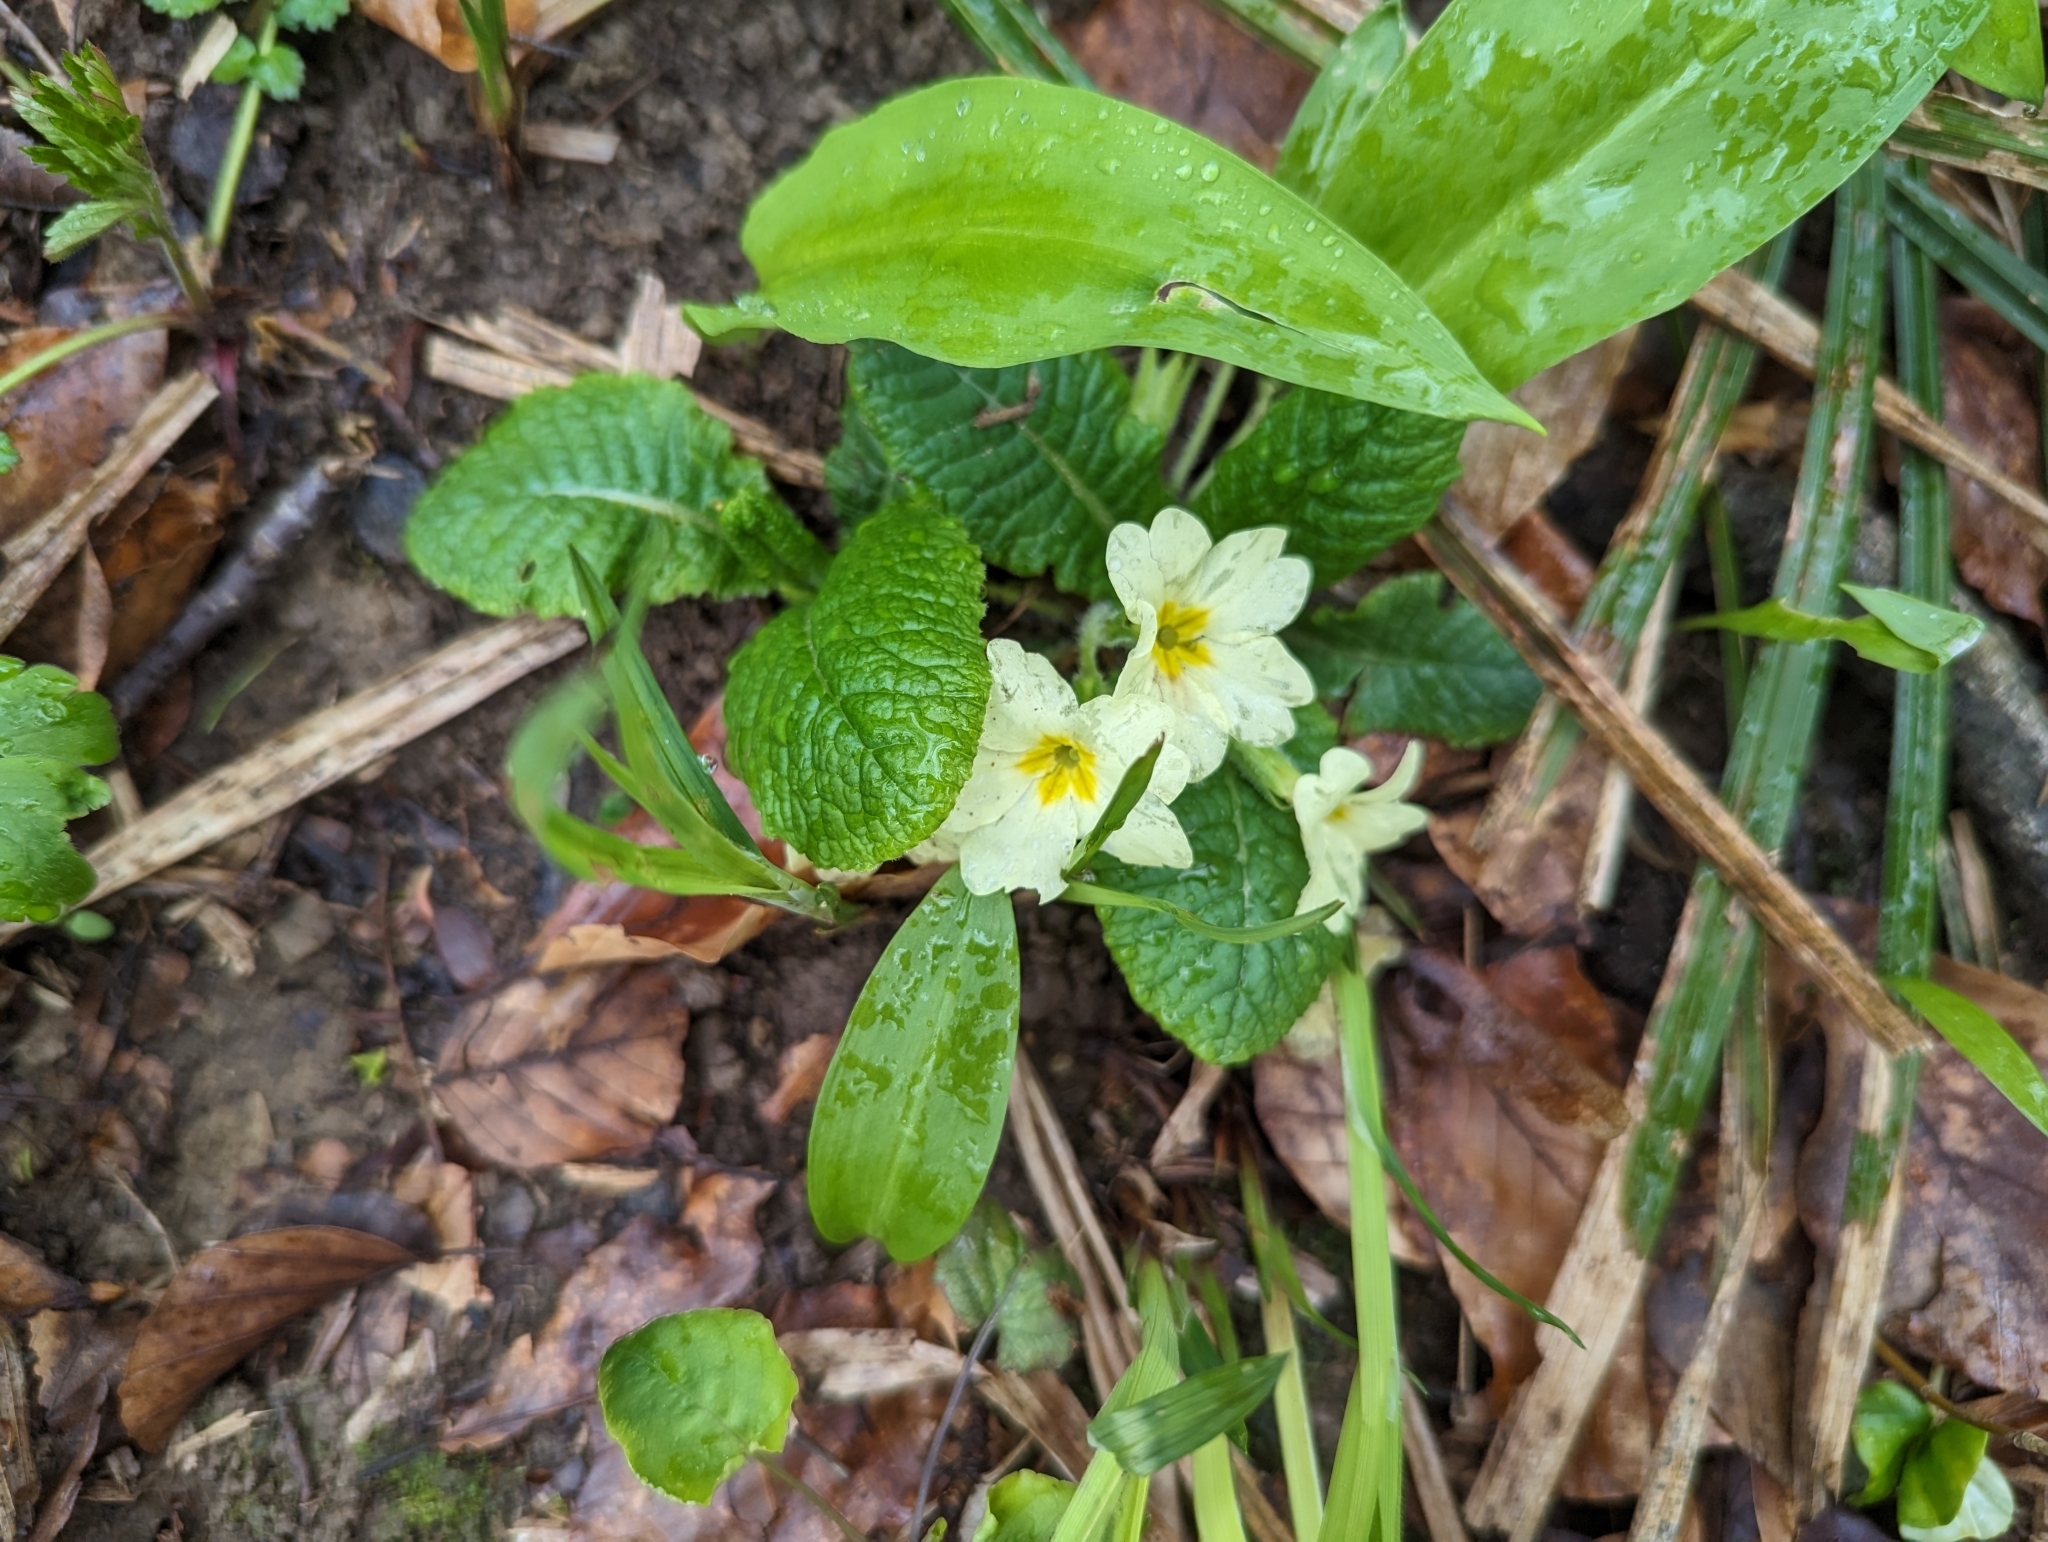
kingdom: Plantae
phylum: Tracheophyta
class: Magnoliopsida
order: Ericales
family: Primulaceae
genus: Primula
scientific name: Primula vulgaris
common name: Primrose
